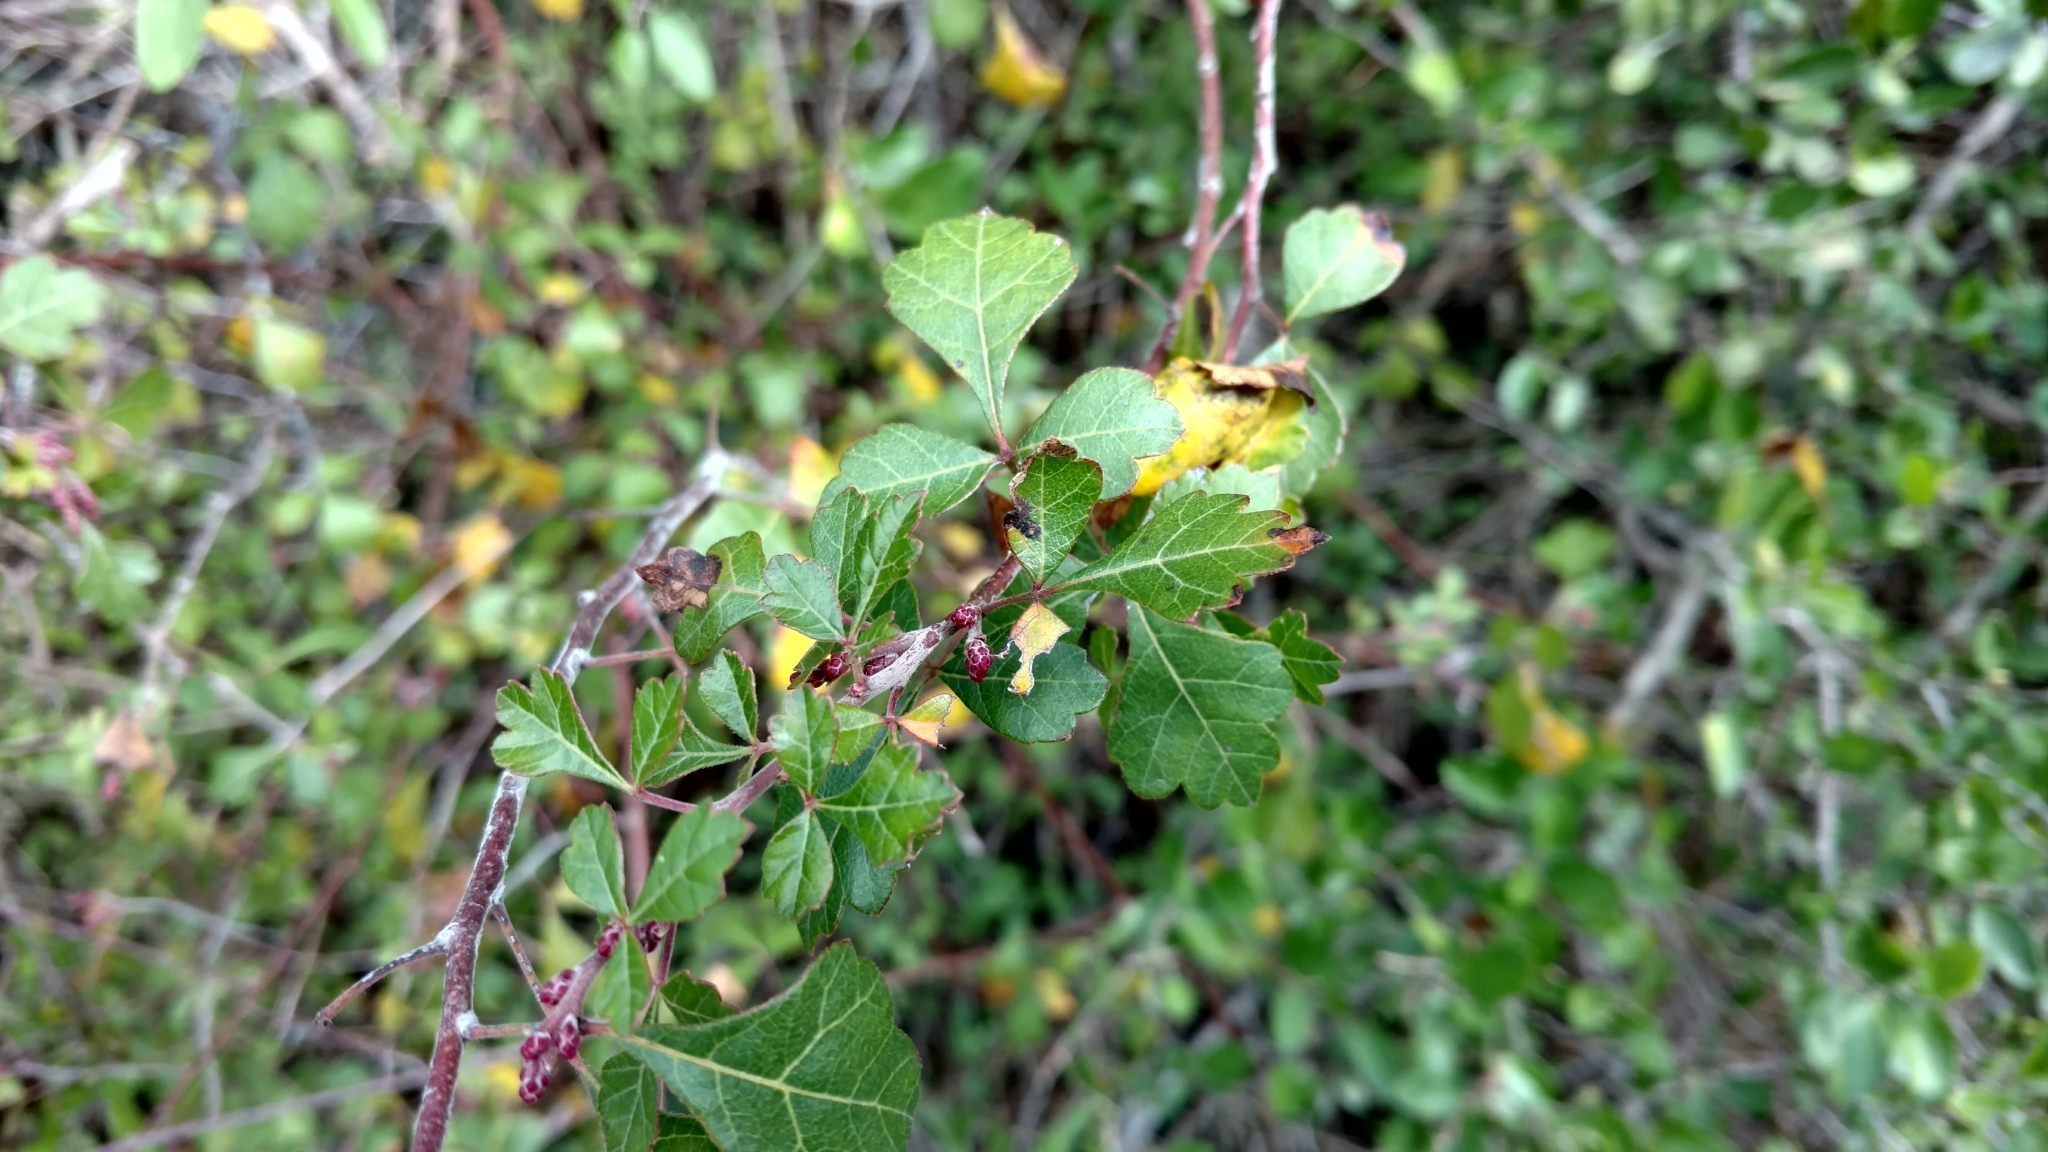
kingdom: Plantae
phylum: Tracheophyta
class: Magnoliopsida
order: Sapindales
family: Anacardiaceae
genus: Rhus
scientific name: Rhus aromatica
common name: Aromatic sumac
